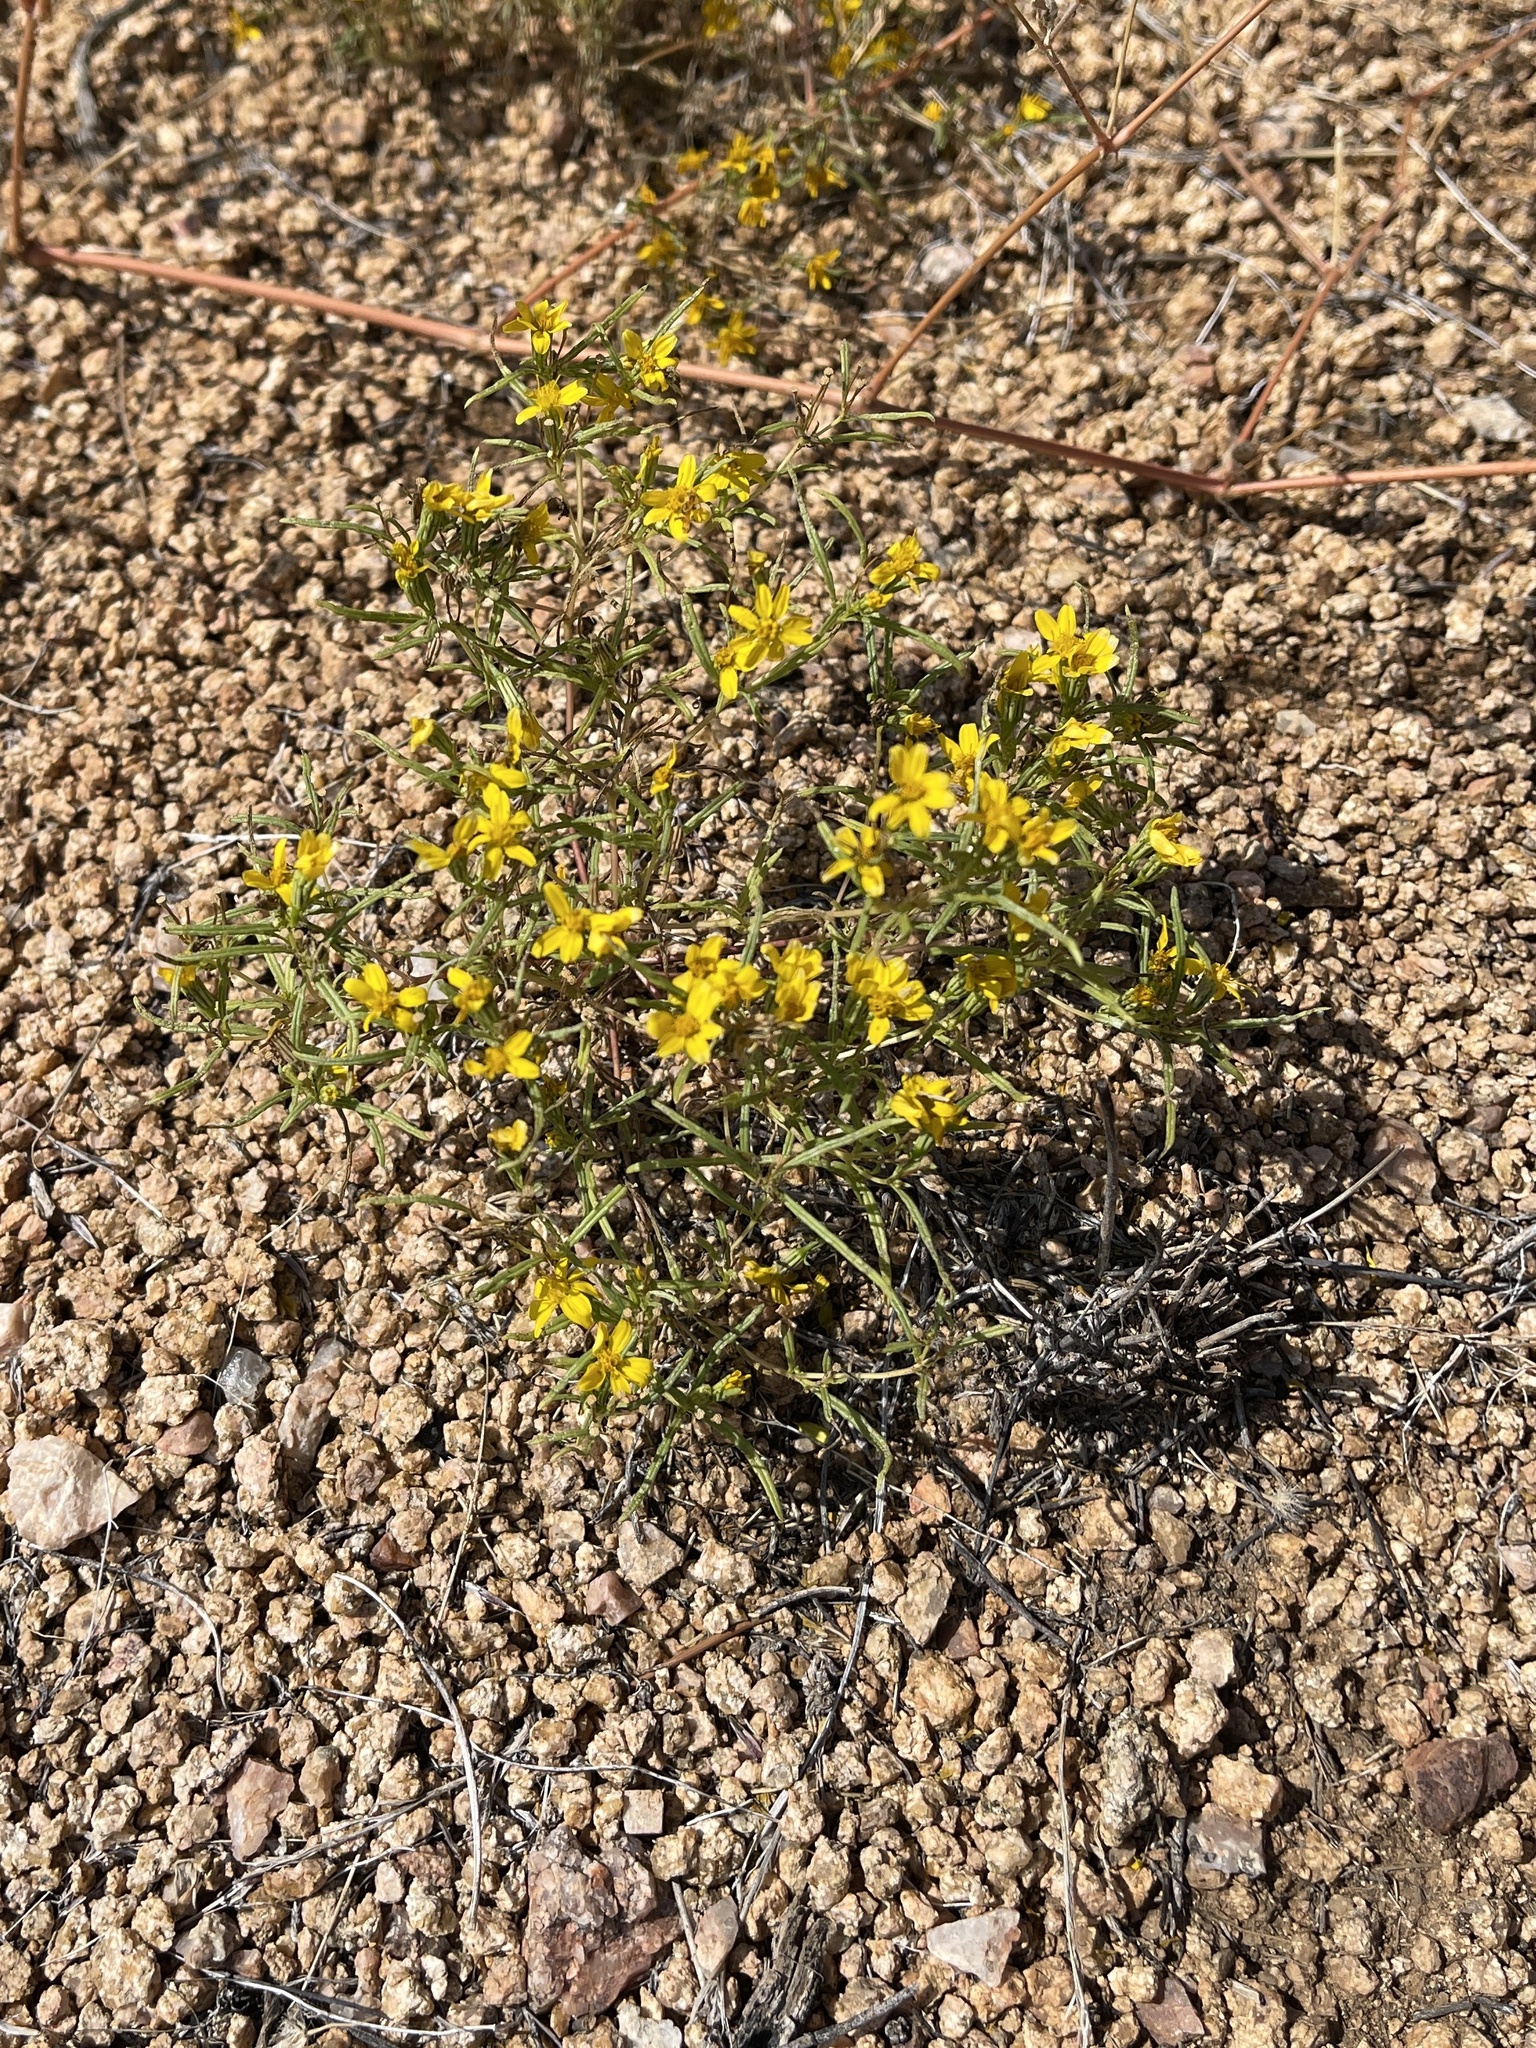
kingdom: Plantae
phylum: Tracheophyta
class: Magnoliopsida
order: Asterales
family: Asteraceae
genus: Pectis
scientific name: Pectis papposa
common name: Many-bristle chinchweed
